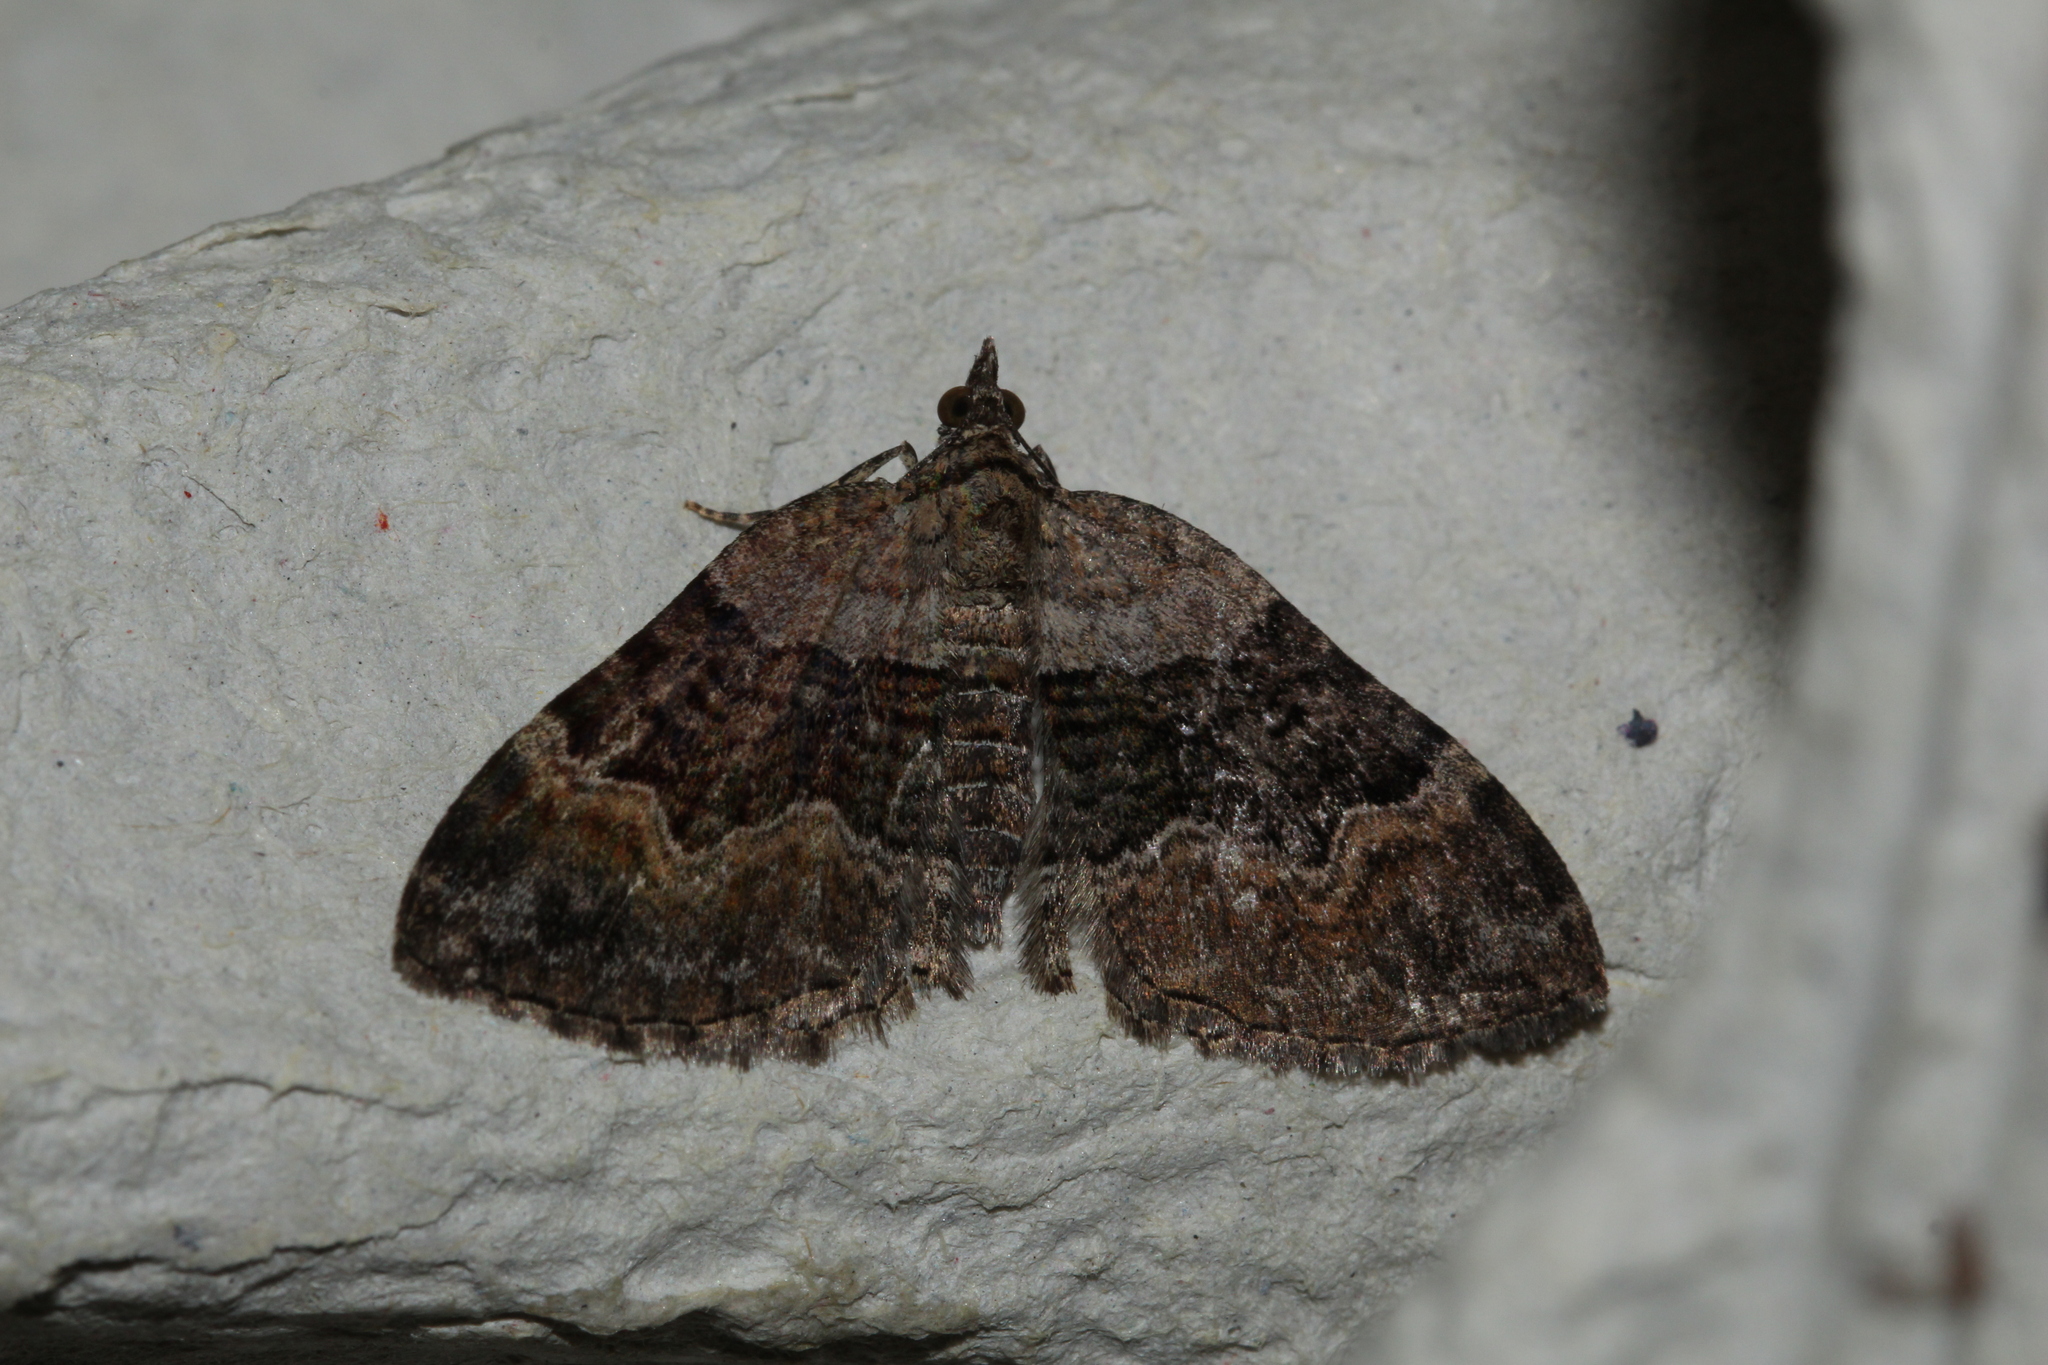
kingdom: Animalia
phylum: Arthropoda
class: Insecta
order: Lepidoptera
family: Geometridae
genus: Xanthorhoe
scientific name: Xanthorhoe quadrifasiata
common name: Large twin-spot carpet
